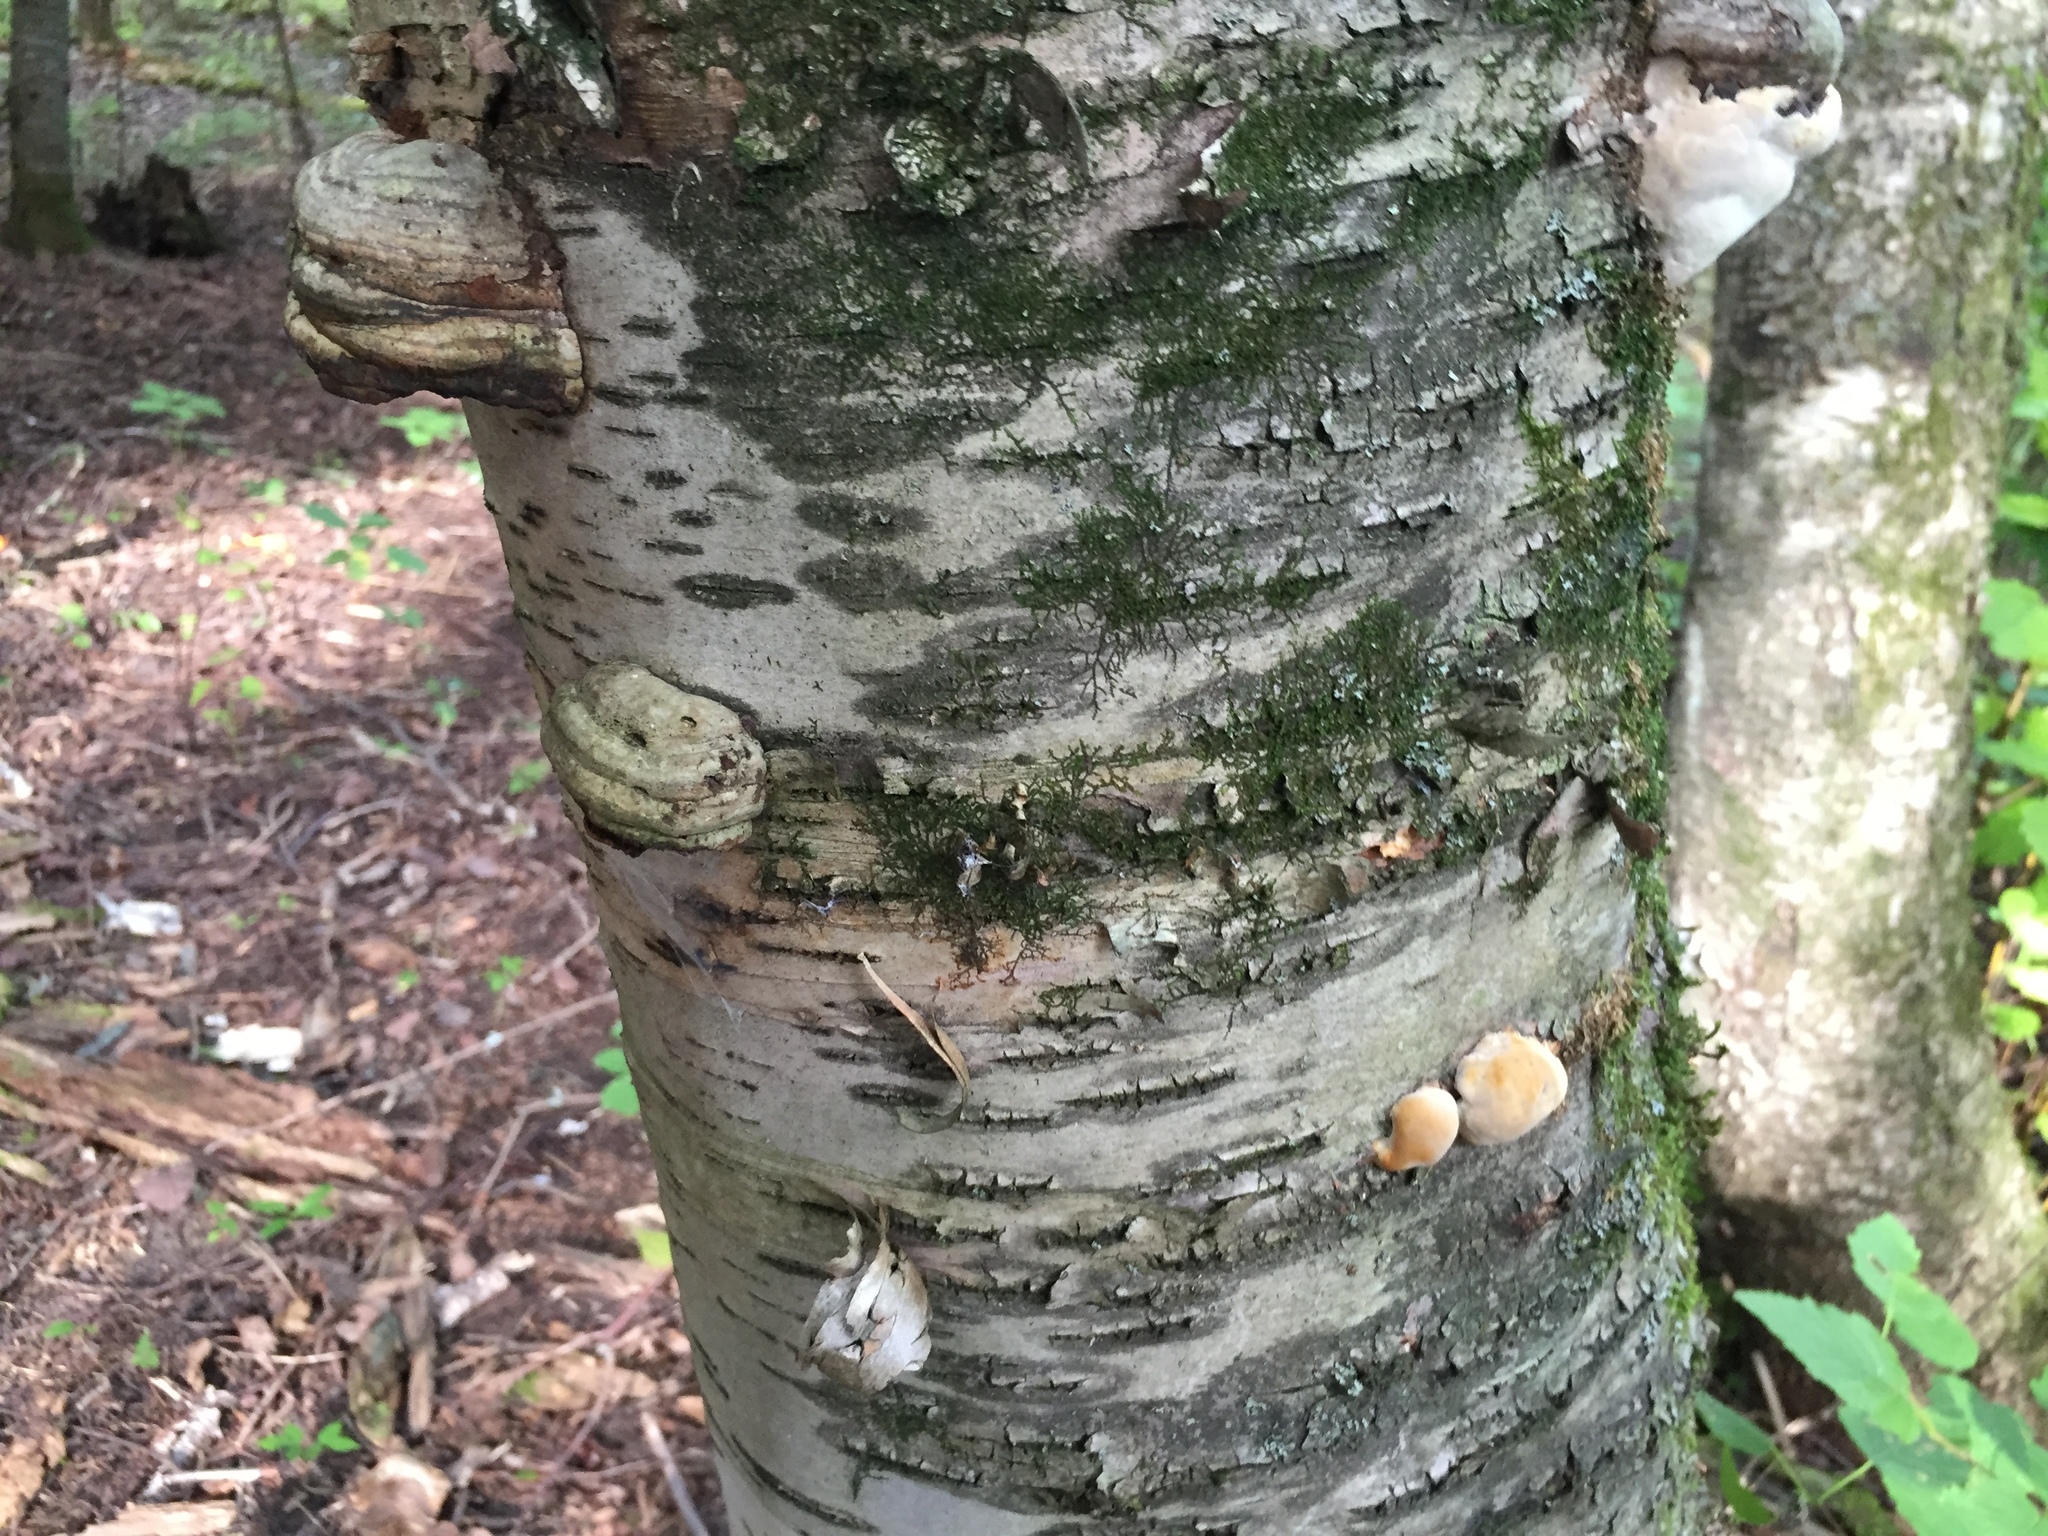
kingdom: Fungi
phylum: Basidiomycota
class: Agaricomycetes
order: Polyporales
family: Polyporaceae
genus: Fomes
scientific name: Fomes fomentarius
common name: Hoof fungus
